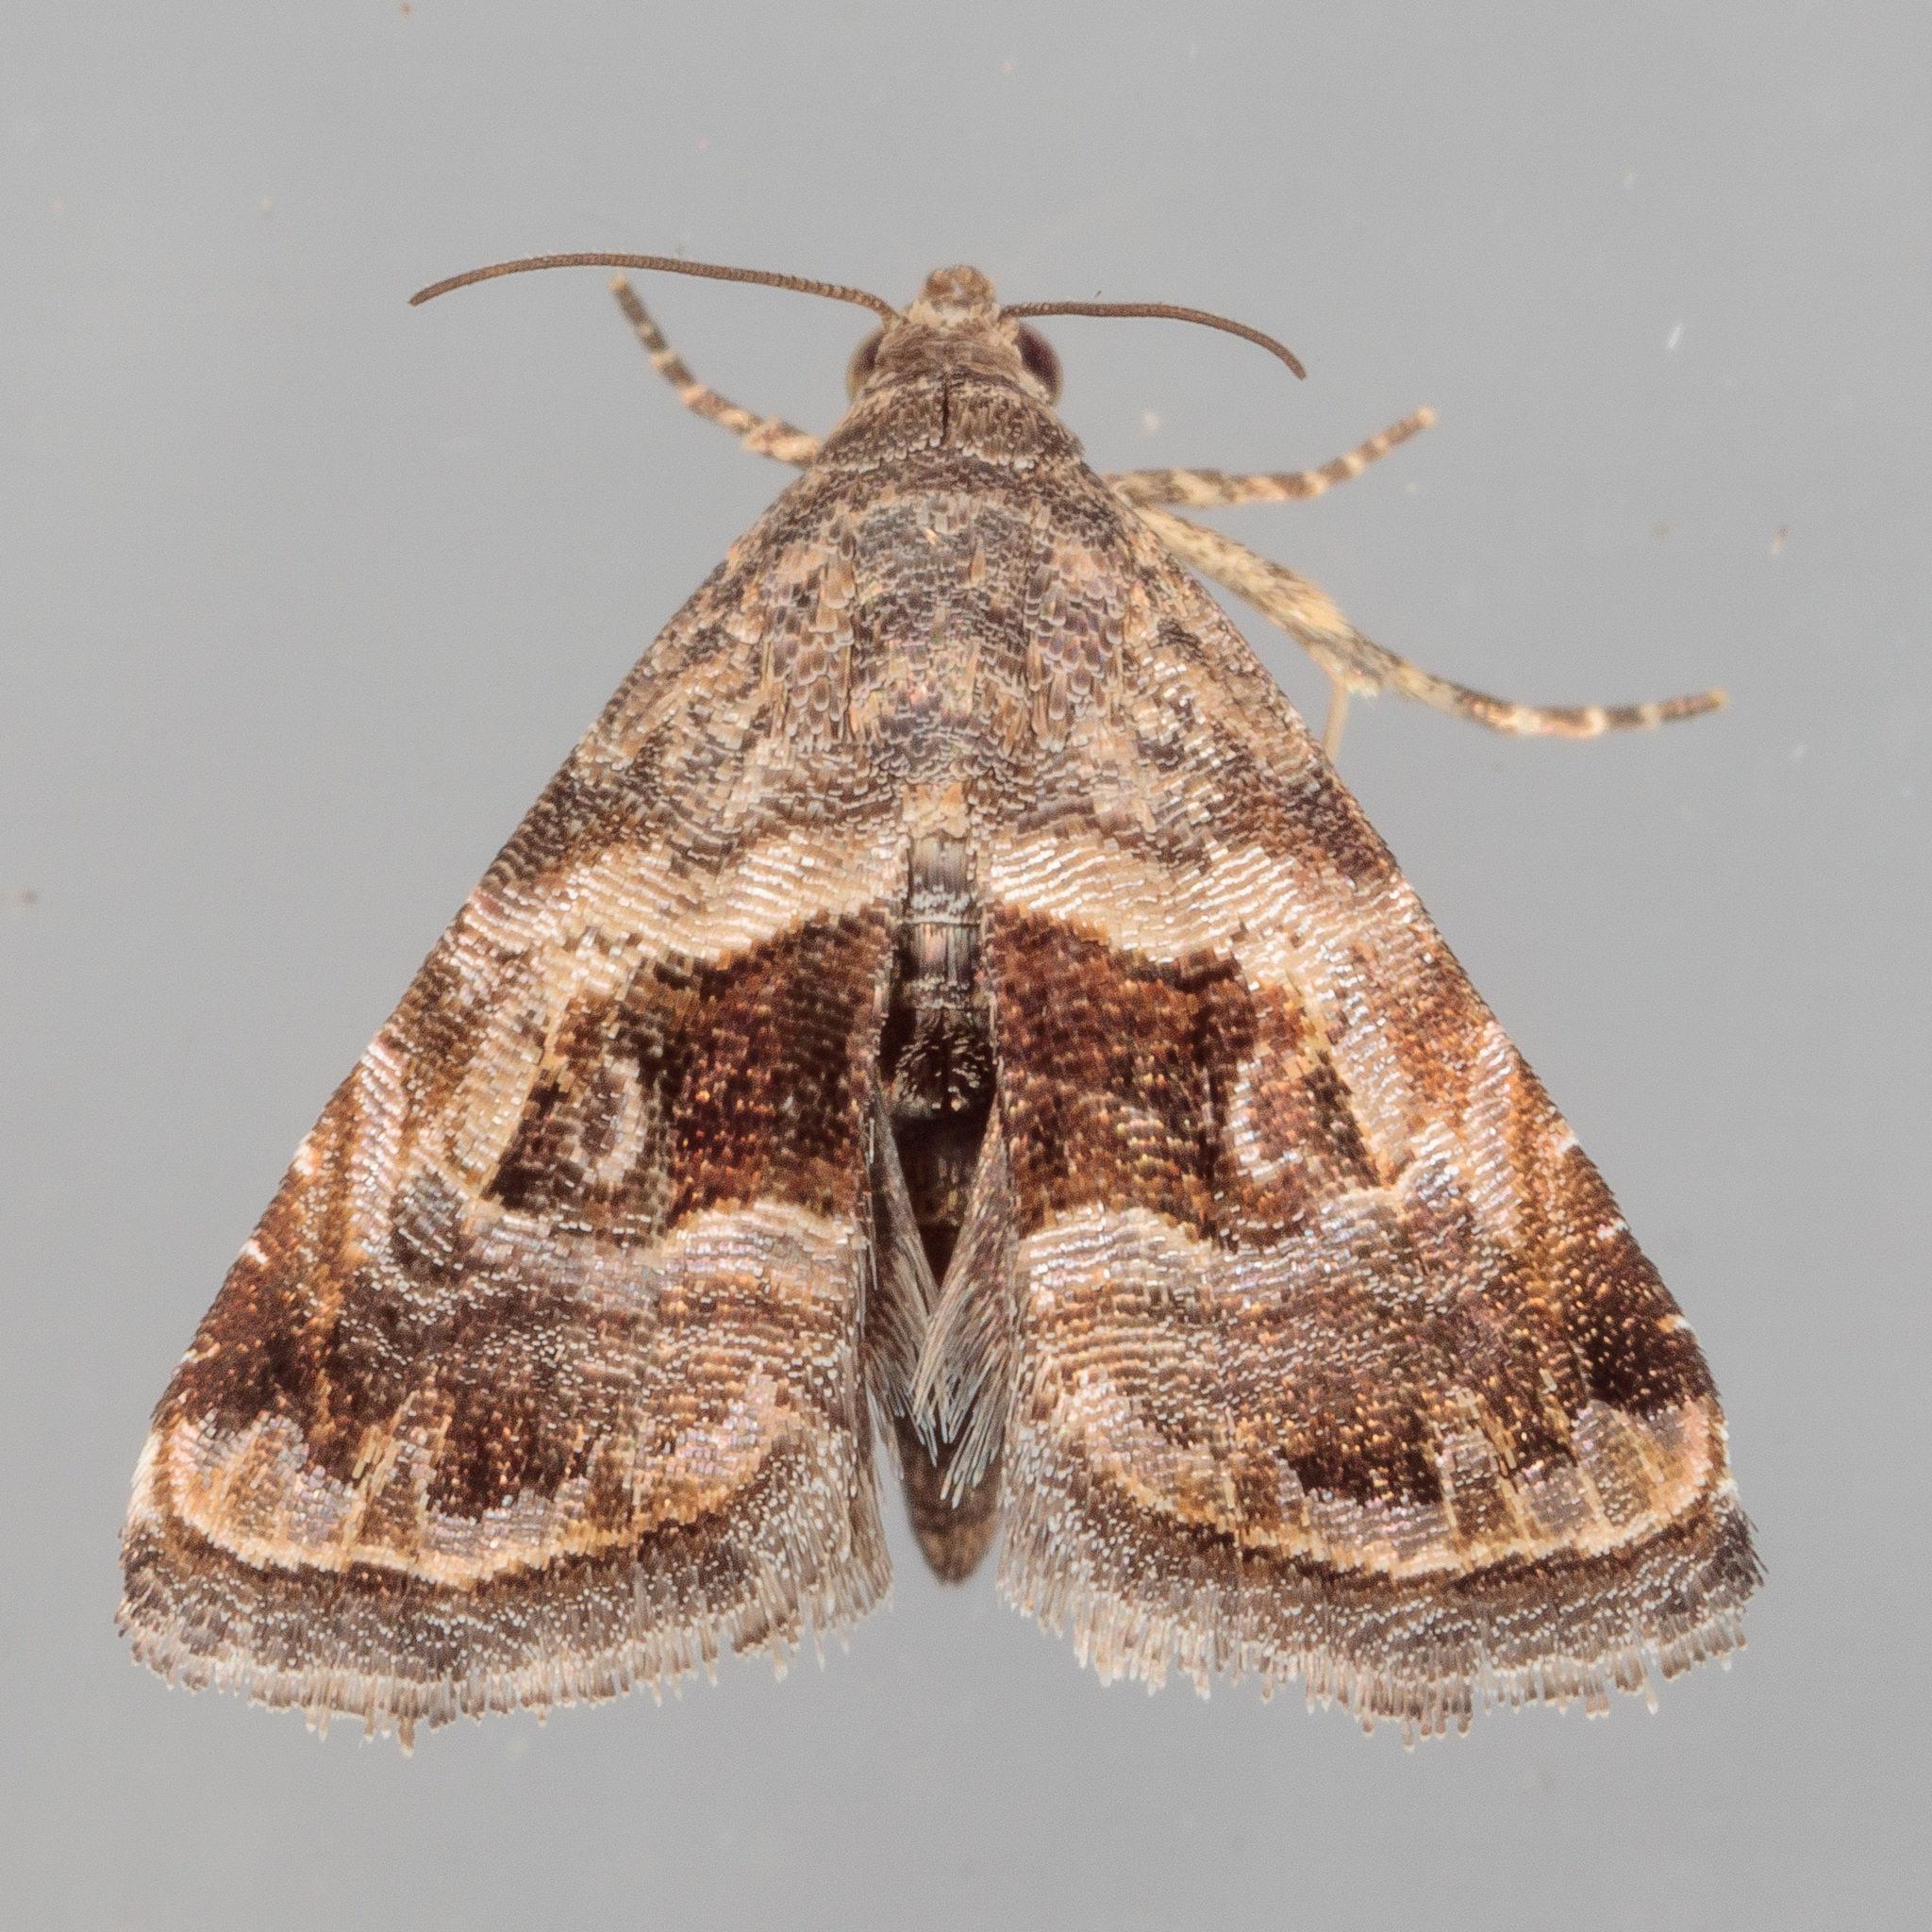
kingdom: Animalia
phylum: Arthropoda
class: Insecta
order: Lepidoptera
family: Noctuidae
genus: Tripudia
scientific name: Tripudia quadrifera
